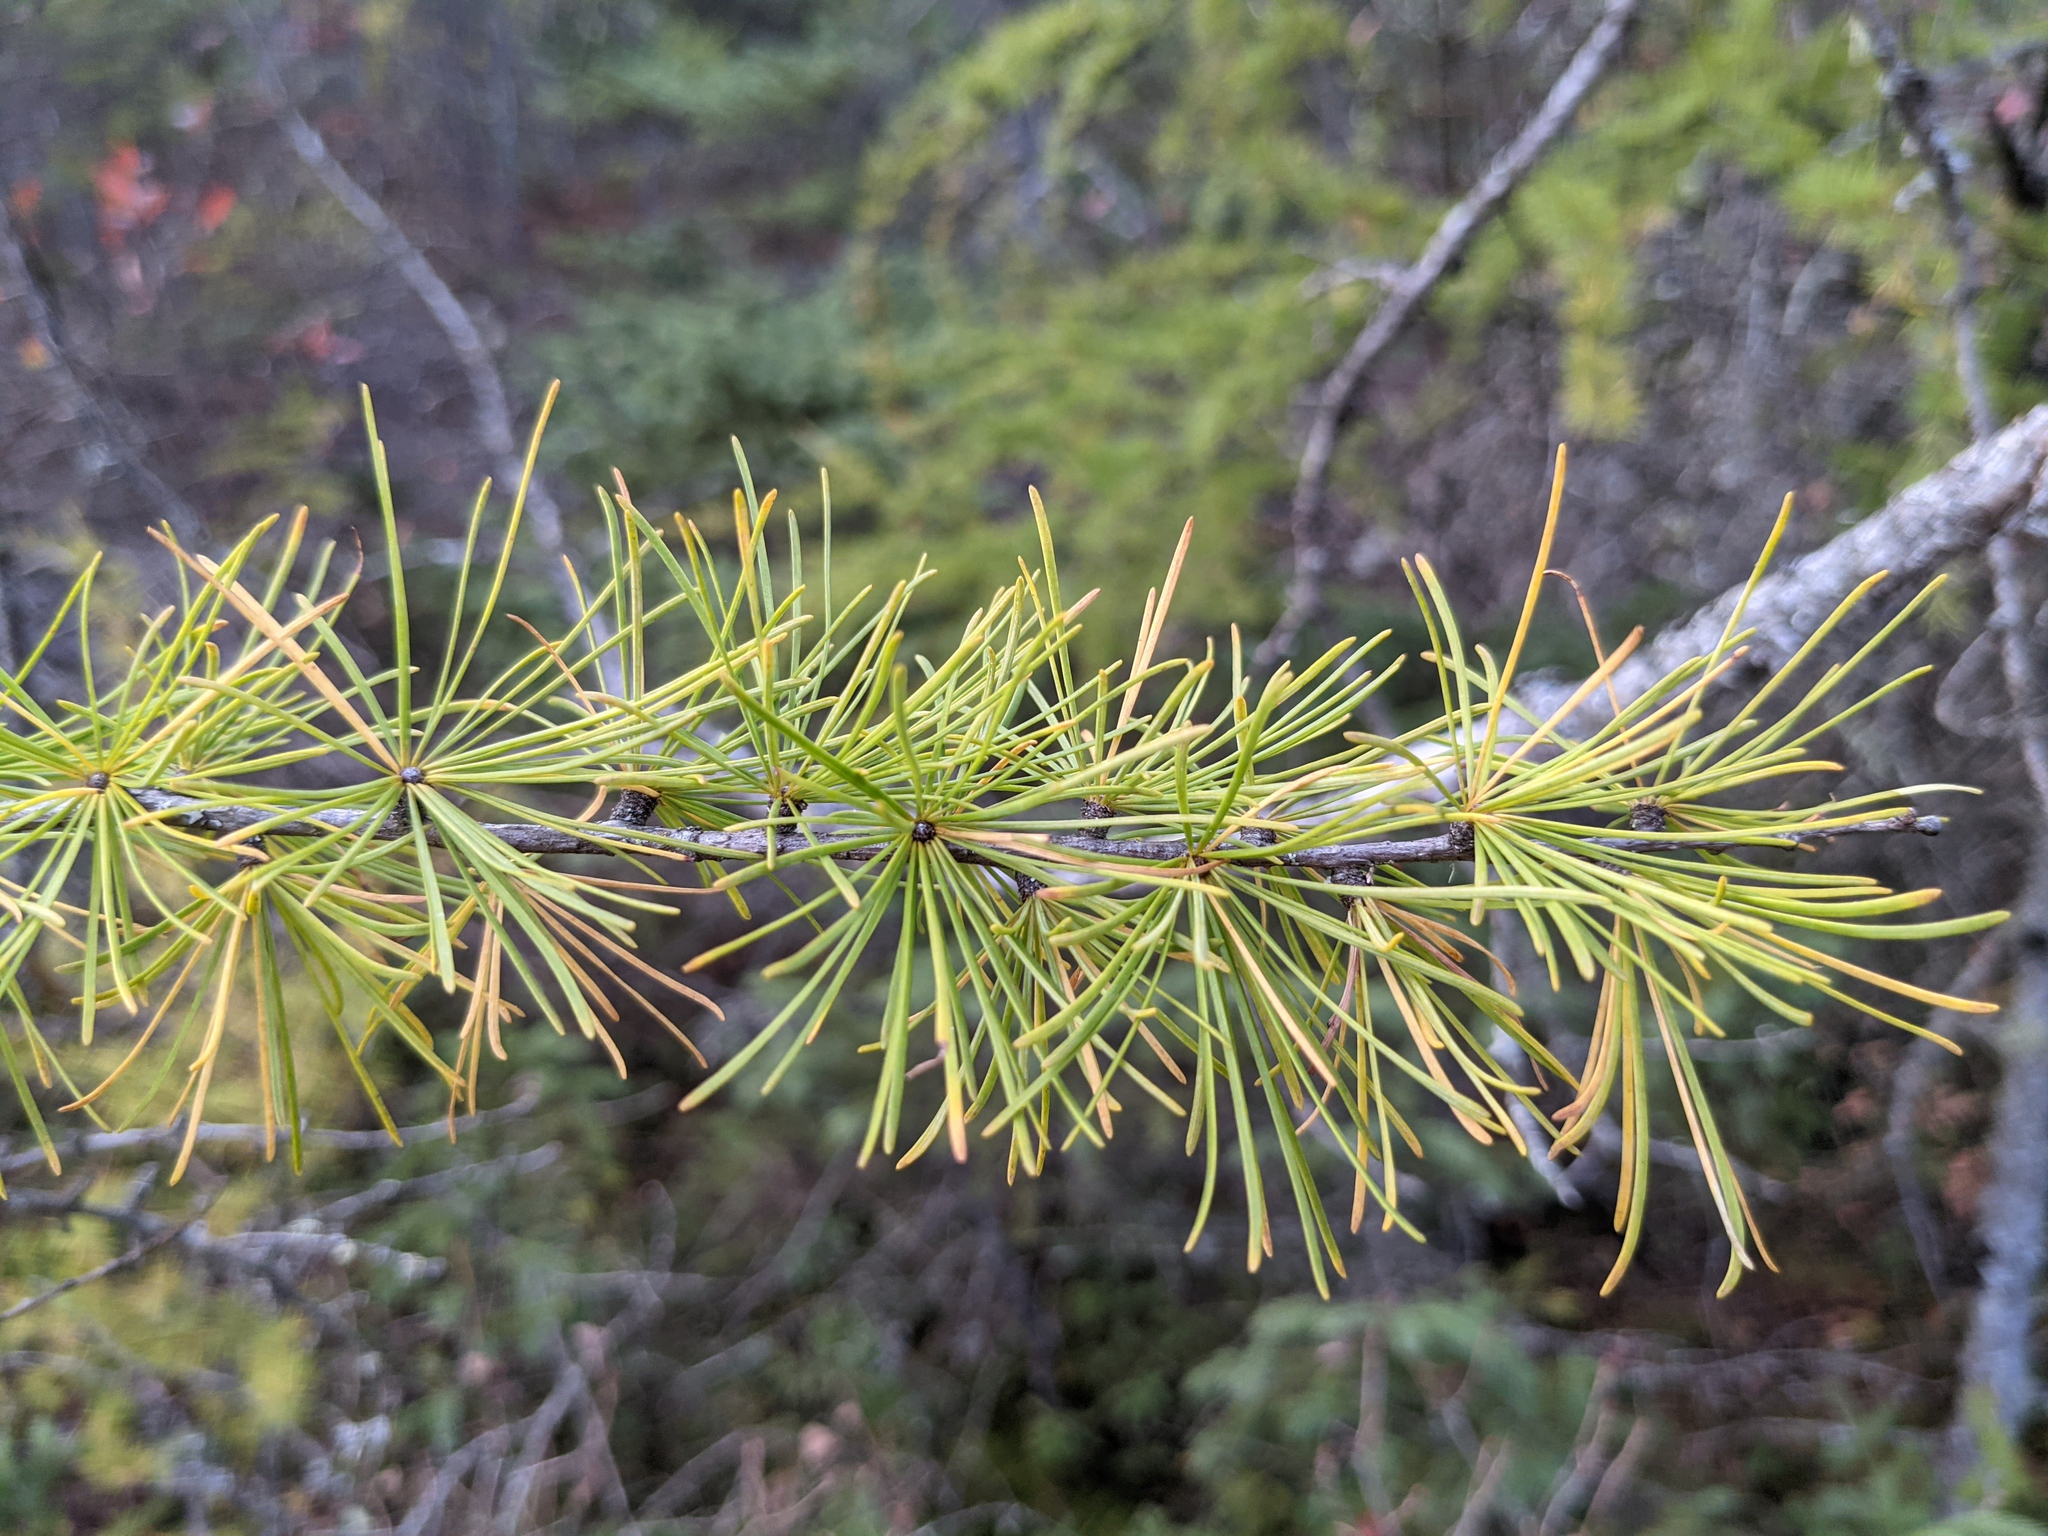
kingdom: Plantae
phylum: Tracheophyta
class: Pinopsida
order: Pinales
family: Pinaceae
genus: Larix
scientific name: Larix laricina
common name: American larch
